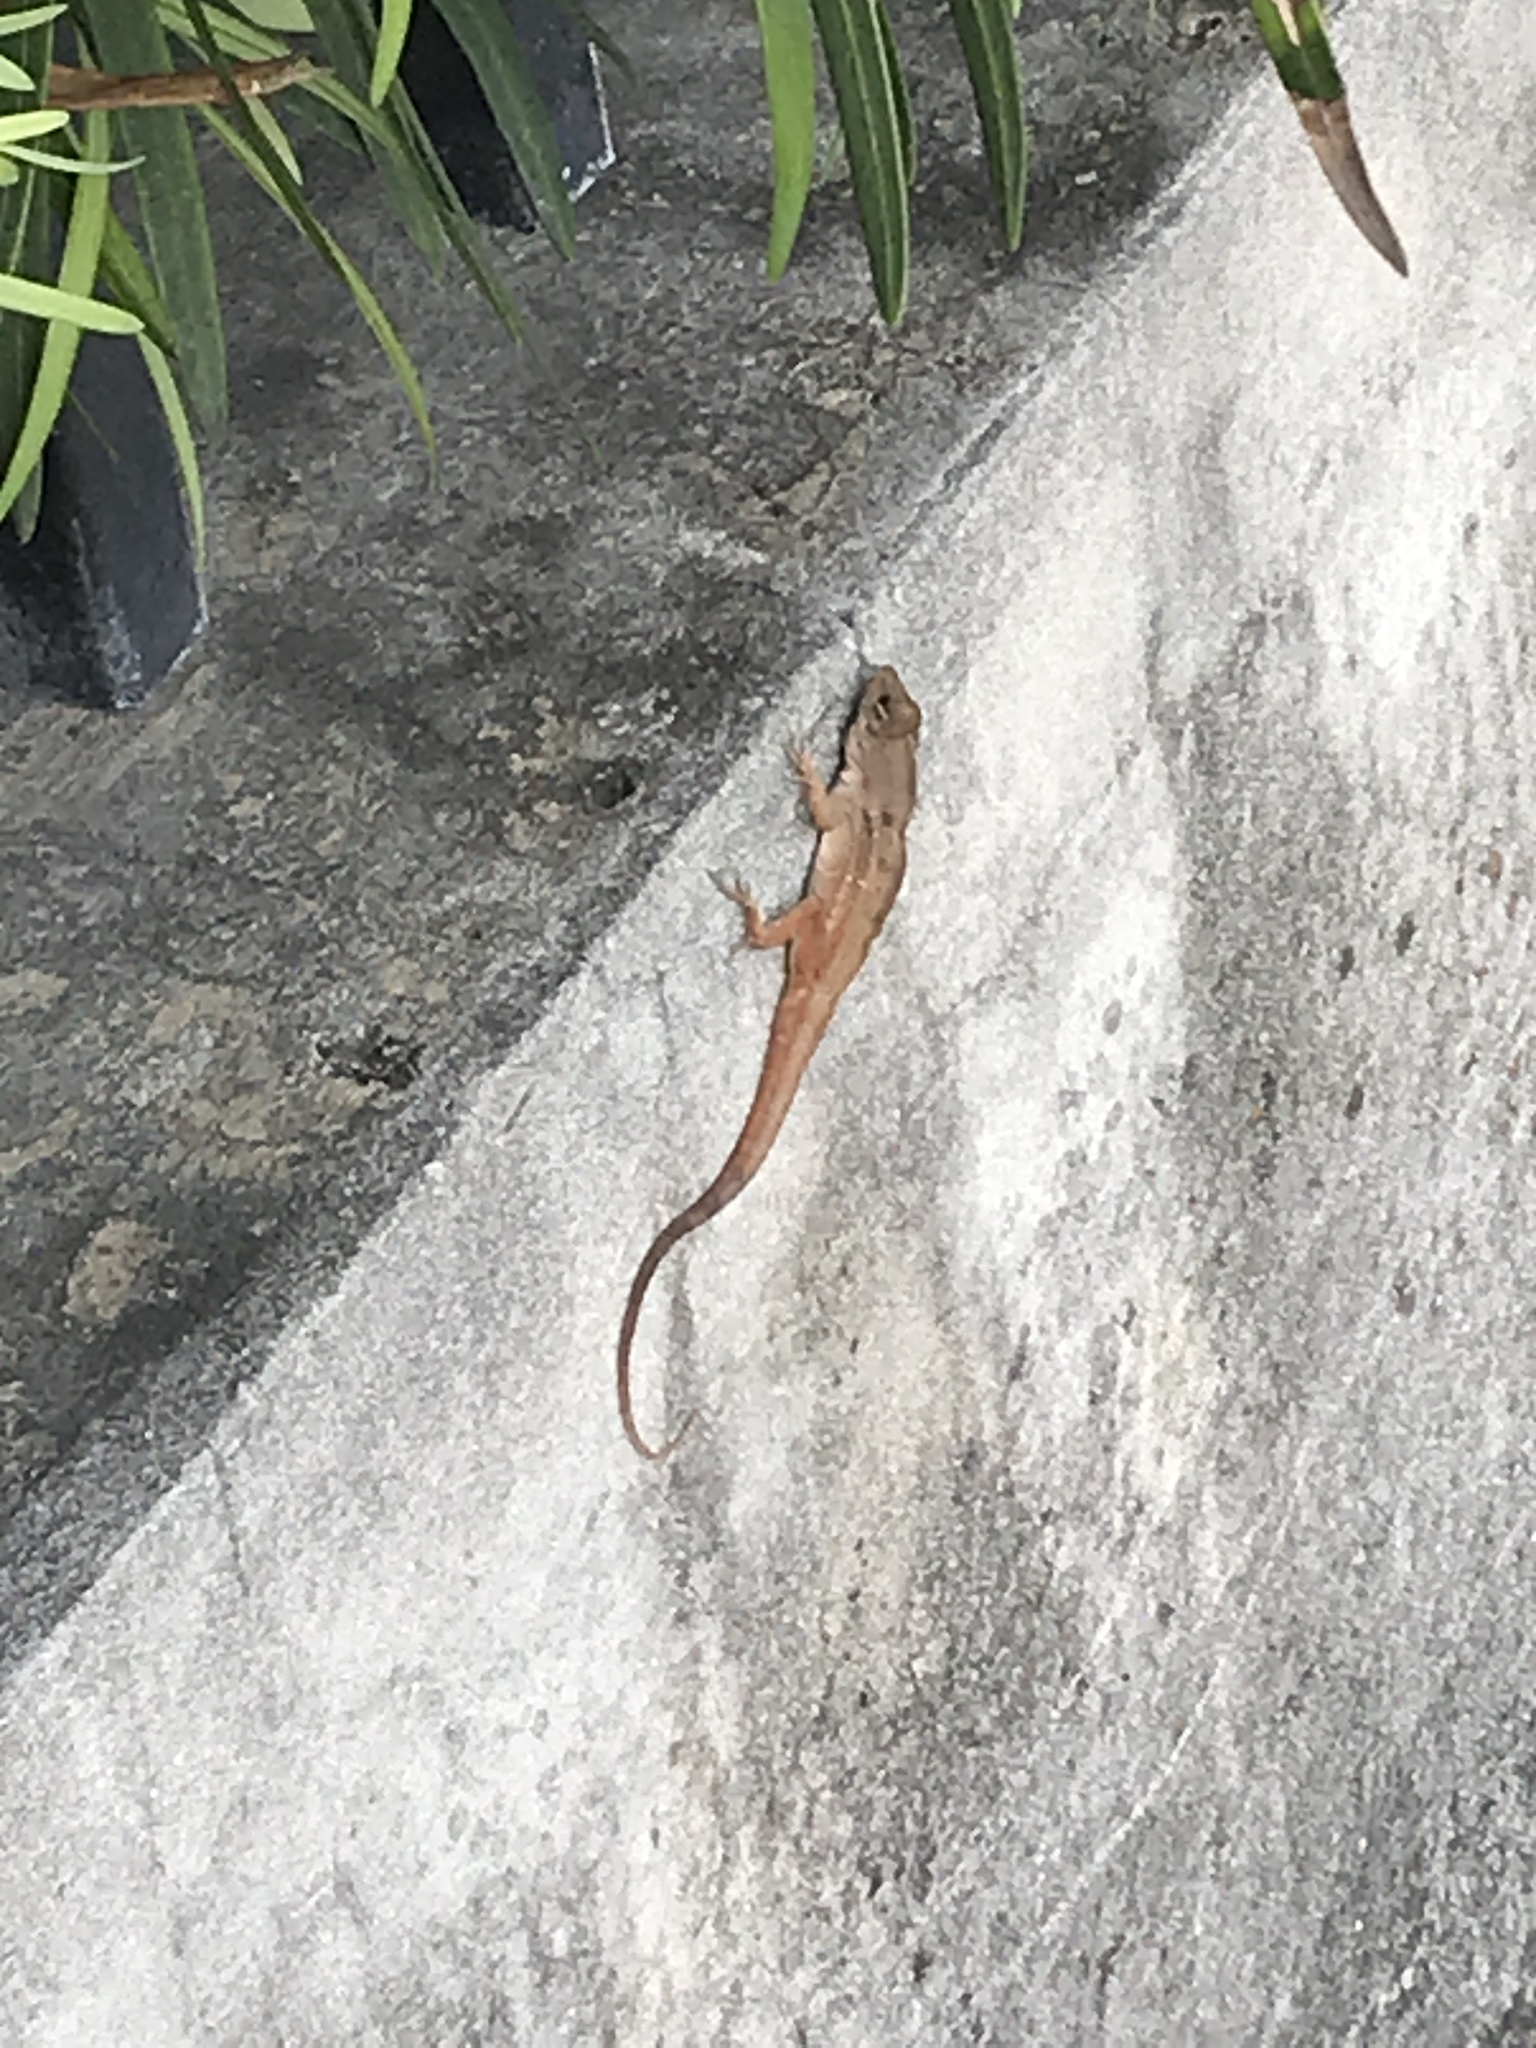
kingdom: Animalia
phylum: Chordata
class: Squamata
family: Dactyloidae
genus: Anolis
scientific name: Anolis sagrei
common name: Brown anole
